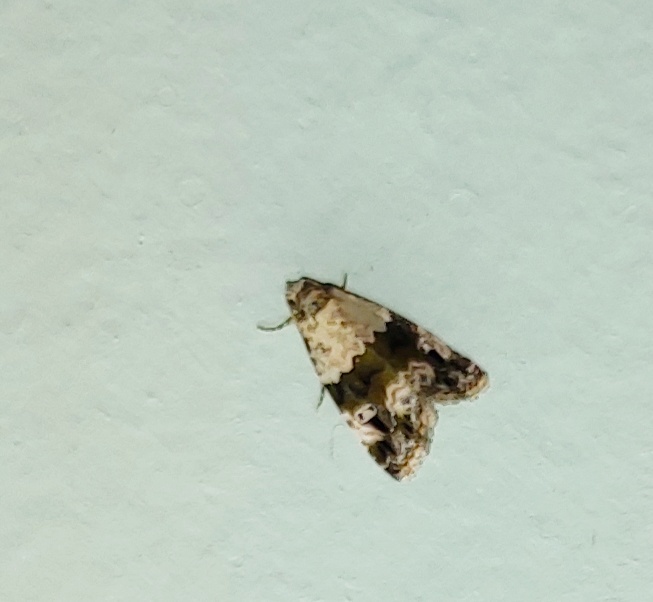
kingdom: Animalia
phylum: Arthropoda
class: Insecta
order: Lepidoptera
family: Noctuidae
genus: Maliattha
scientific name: Maliattha signifera
